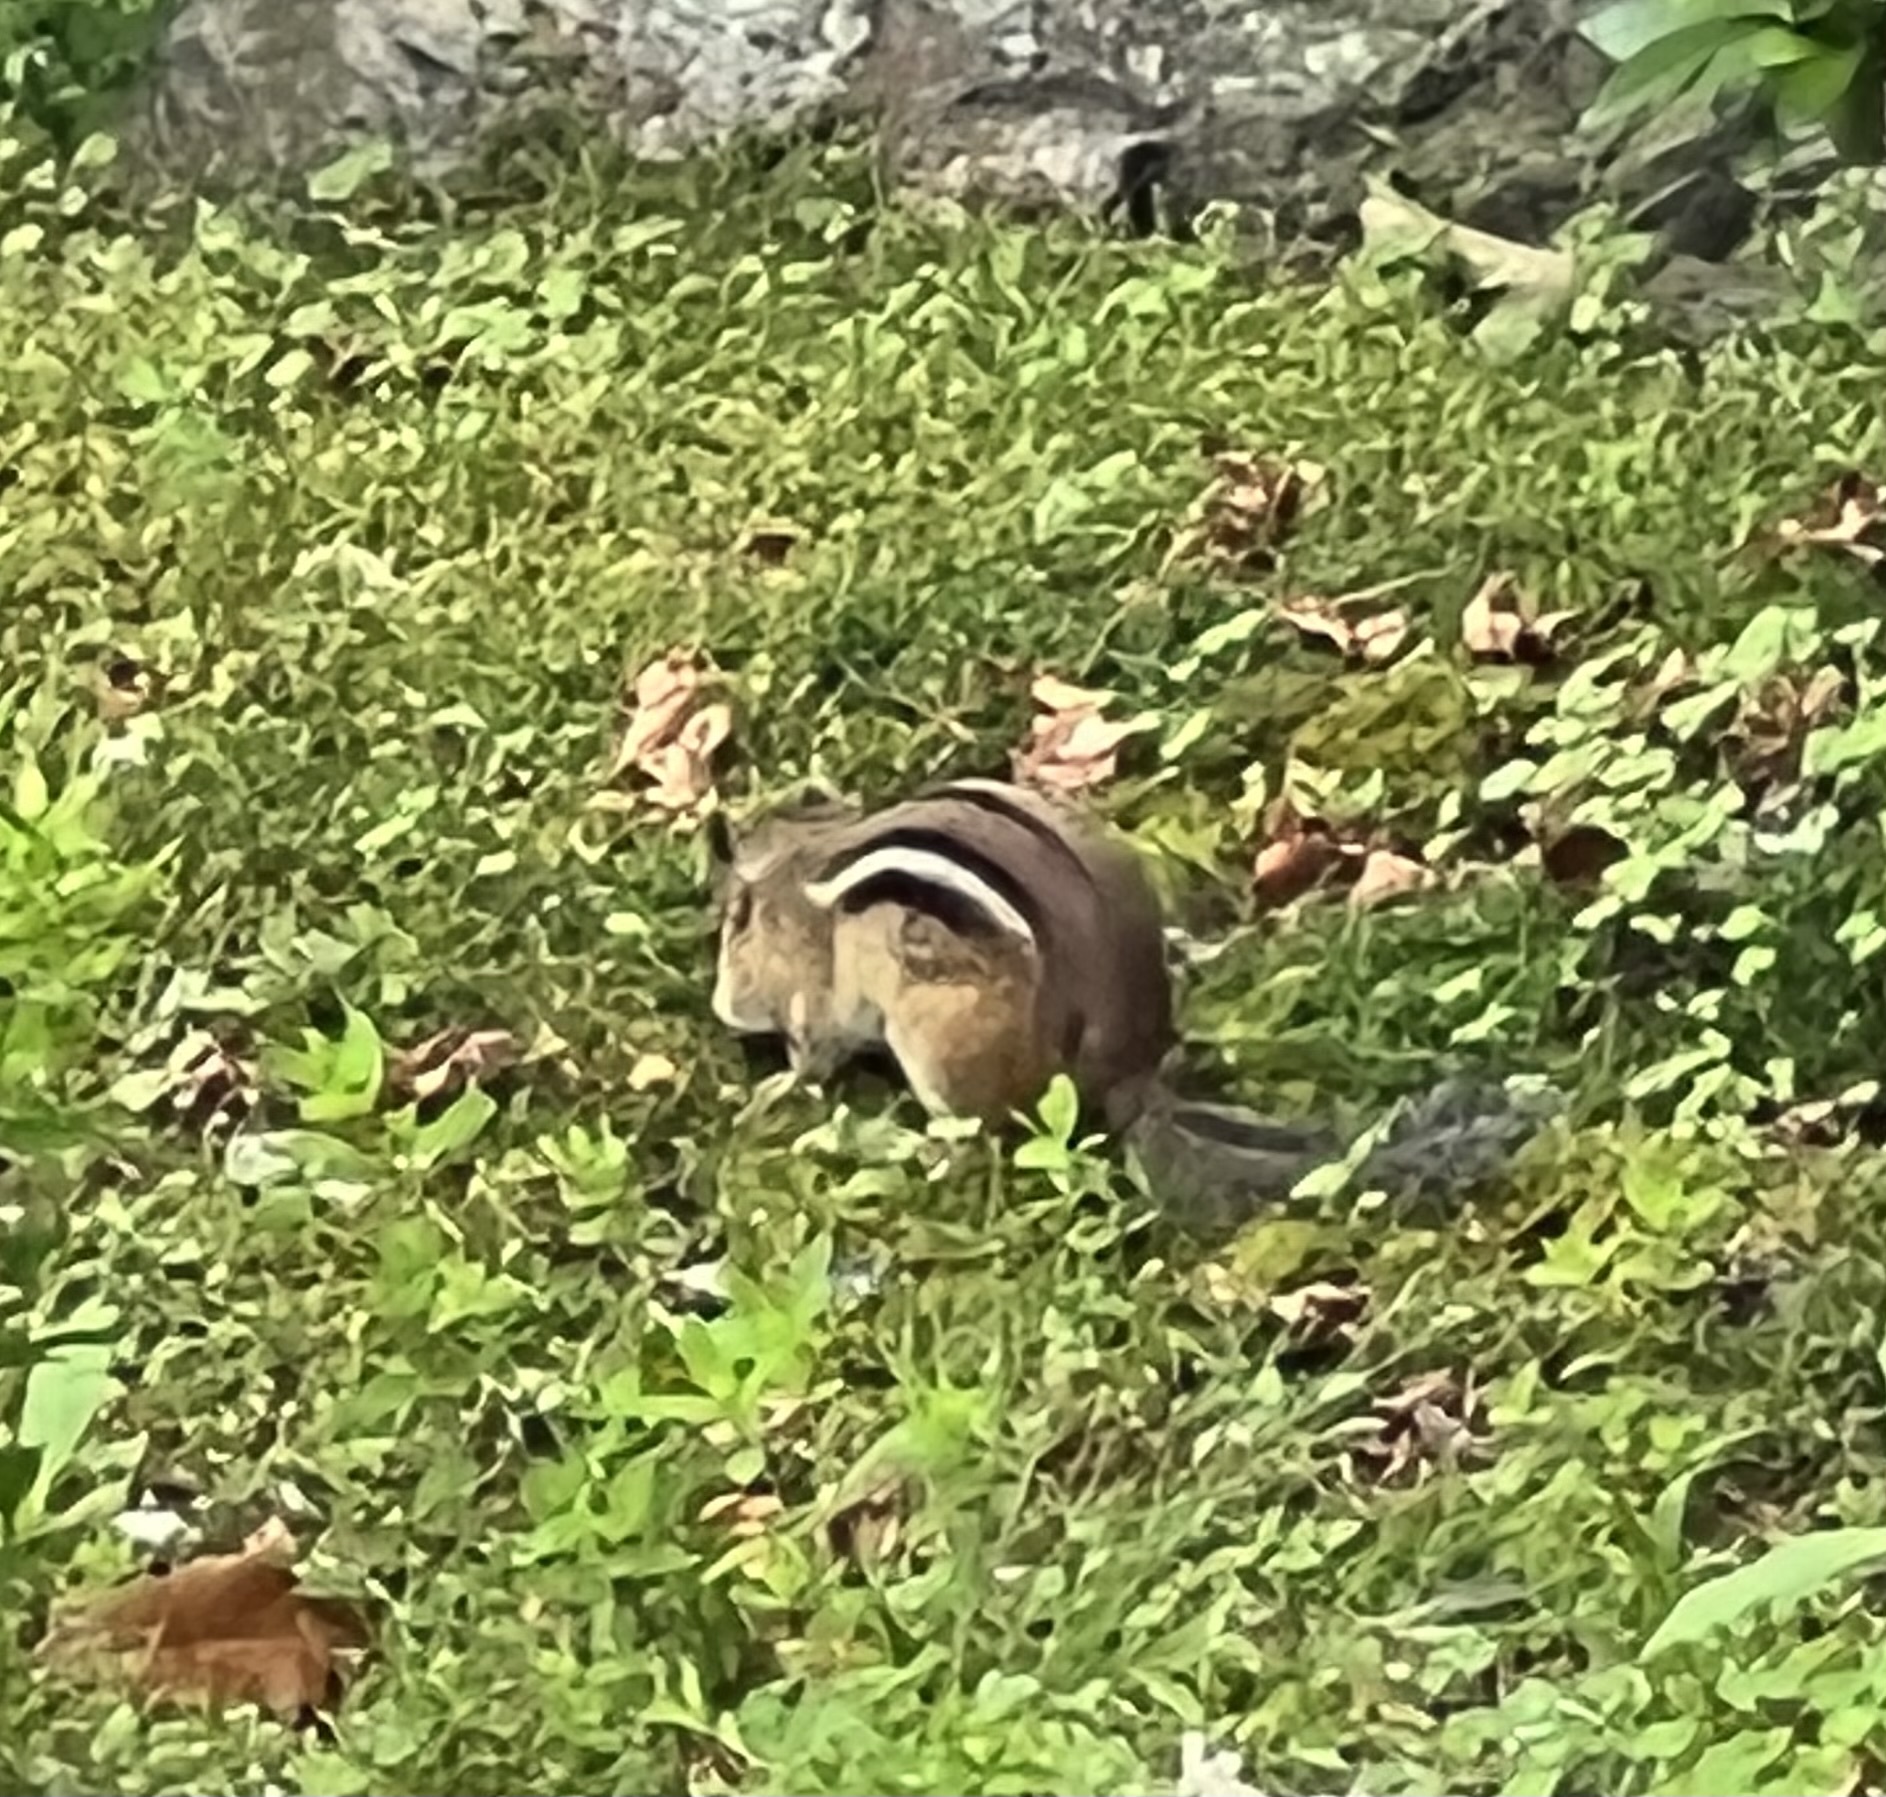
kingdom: Animalia
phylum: Chordata
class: Mammalia
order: Rodentia
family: Sciuridae
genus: Tamias
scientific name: Tamias striatus
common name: Eastern chipmunk
